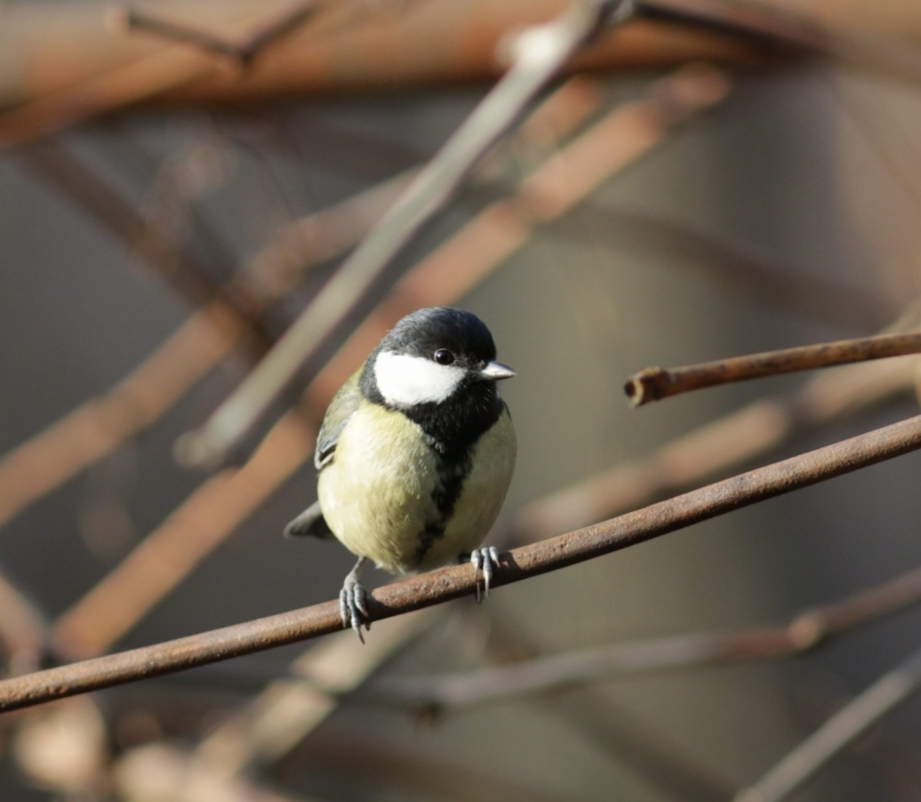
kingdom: Animalia
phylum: Chordata
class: Aves
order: Passeriformes
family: Paridae
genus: Parus
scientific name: Parus major
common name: Great tit
